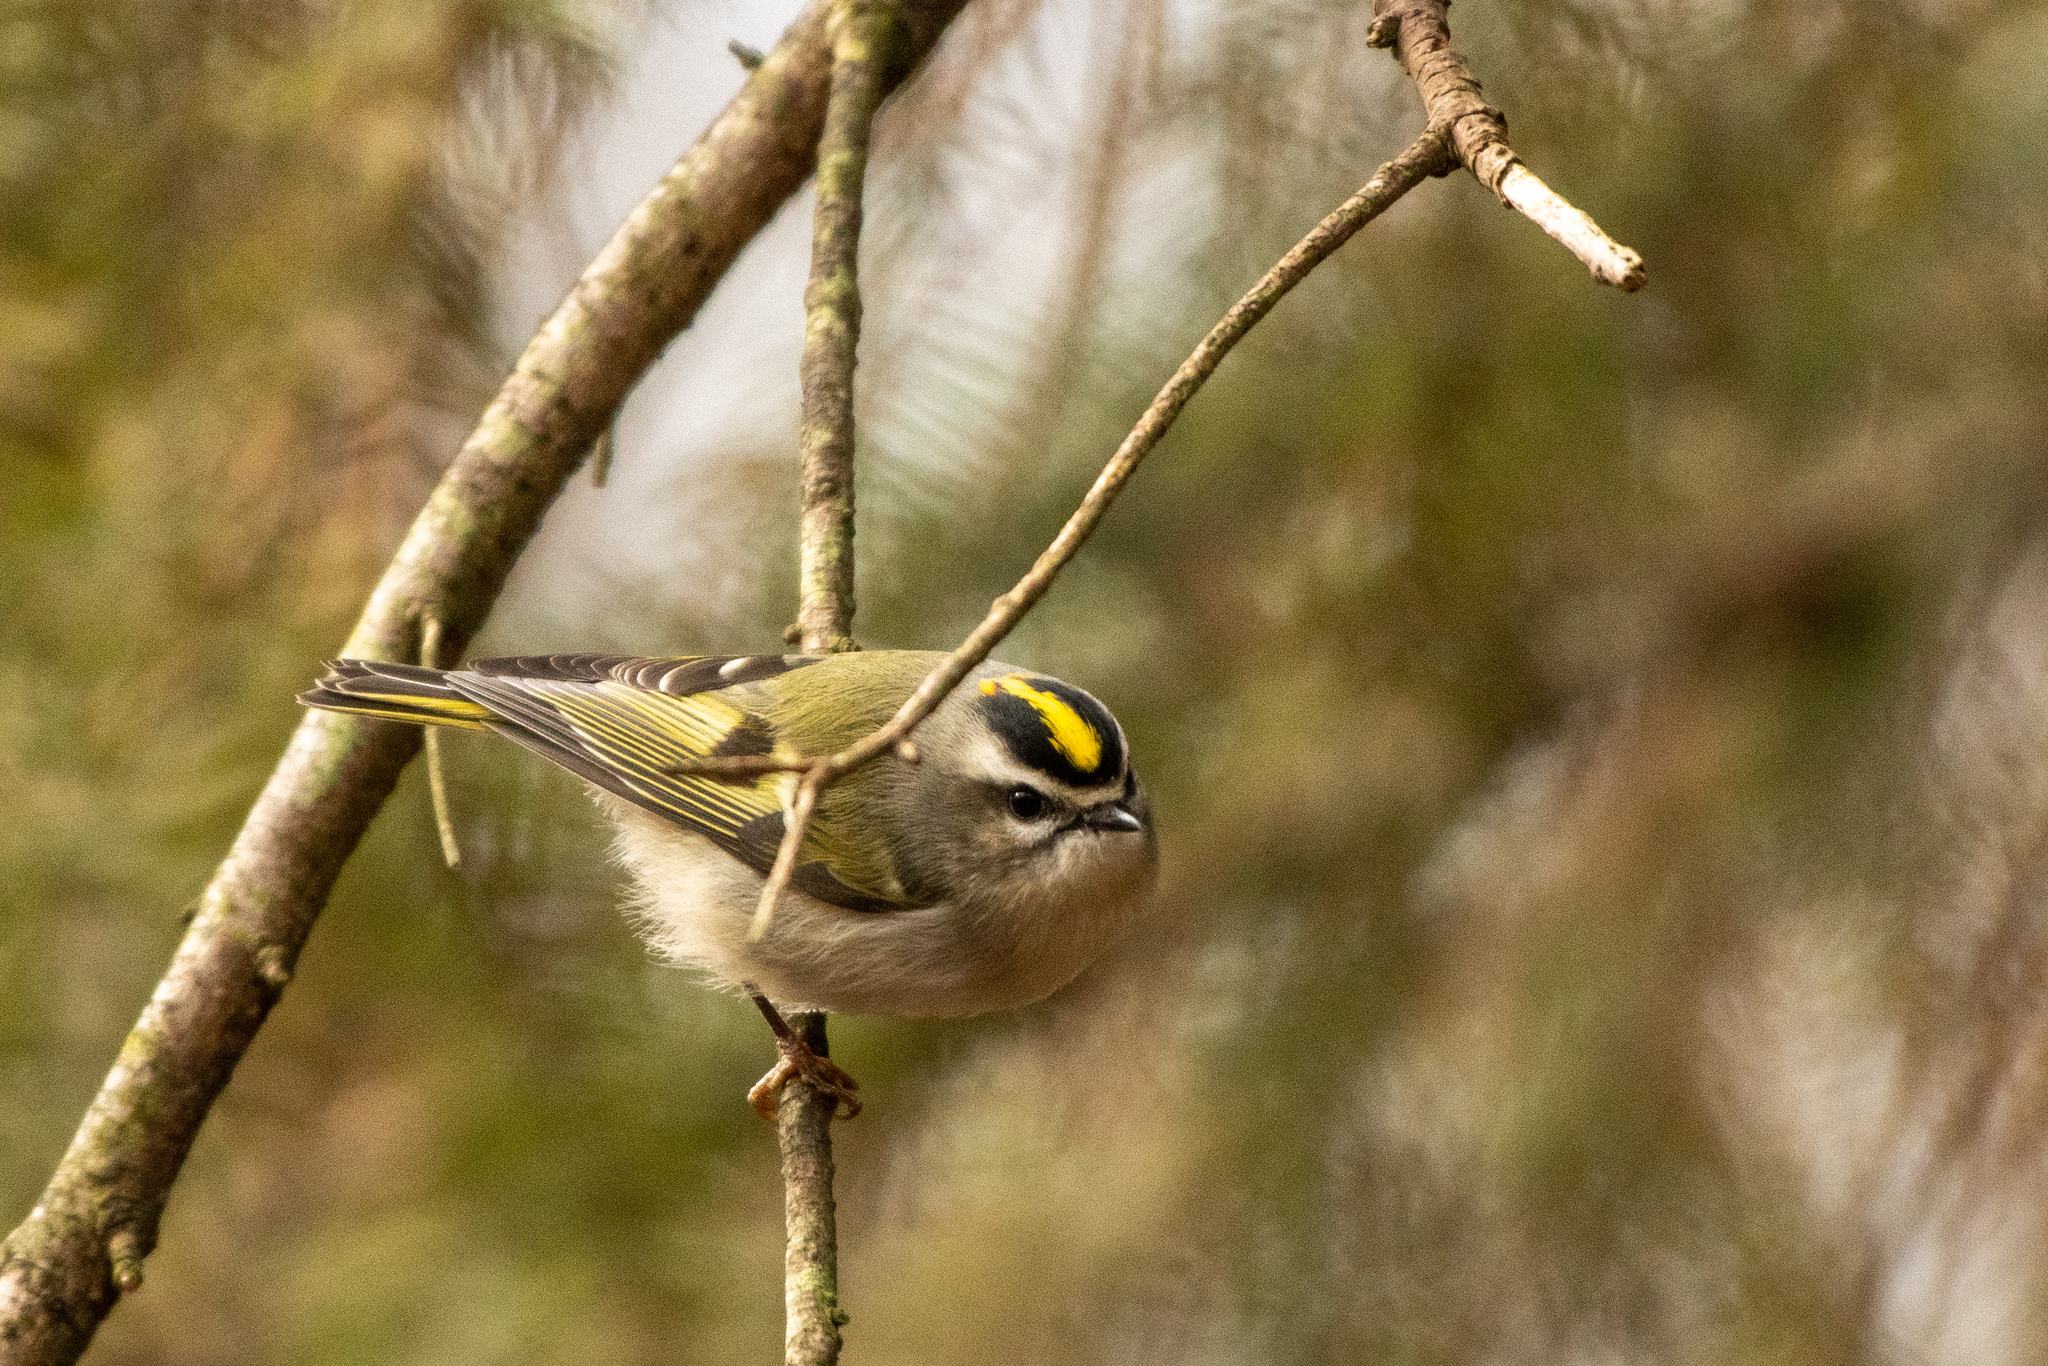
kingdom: Animalia
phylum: Chordata
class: Aves
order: Passeriformes
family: Regulidae
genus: Regulus
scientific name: Regulus satrapa
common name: Golden-crowned kinglet
